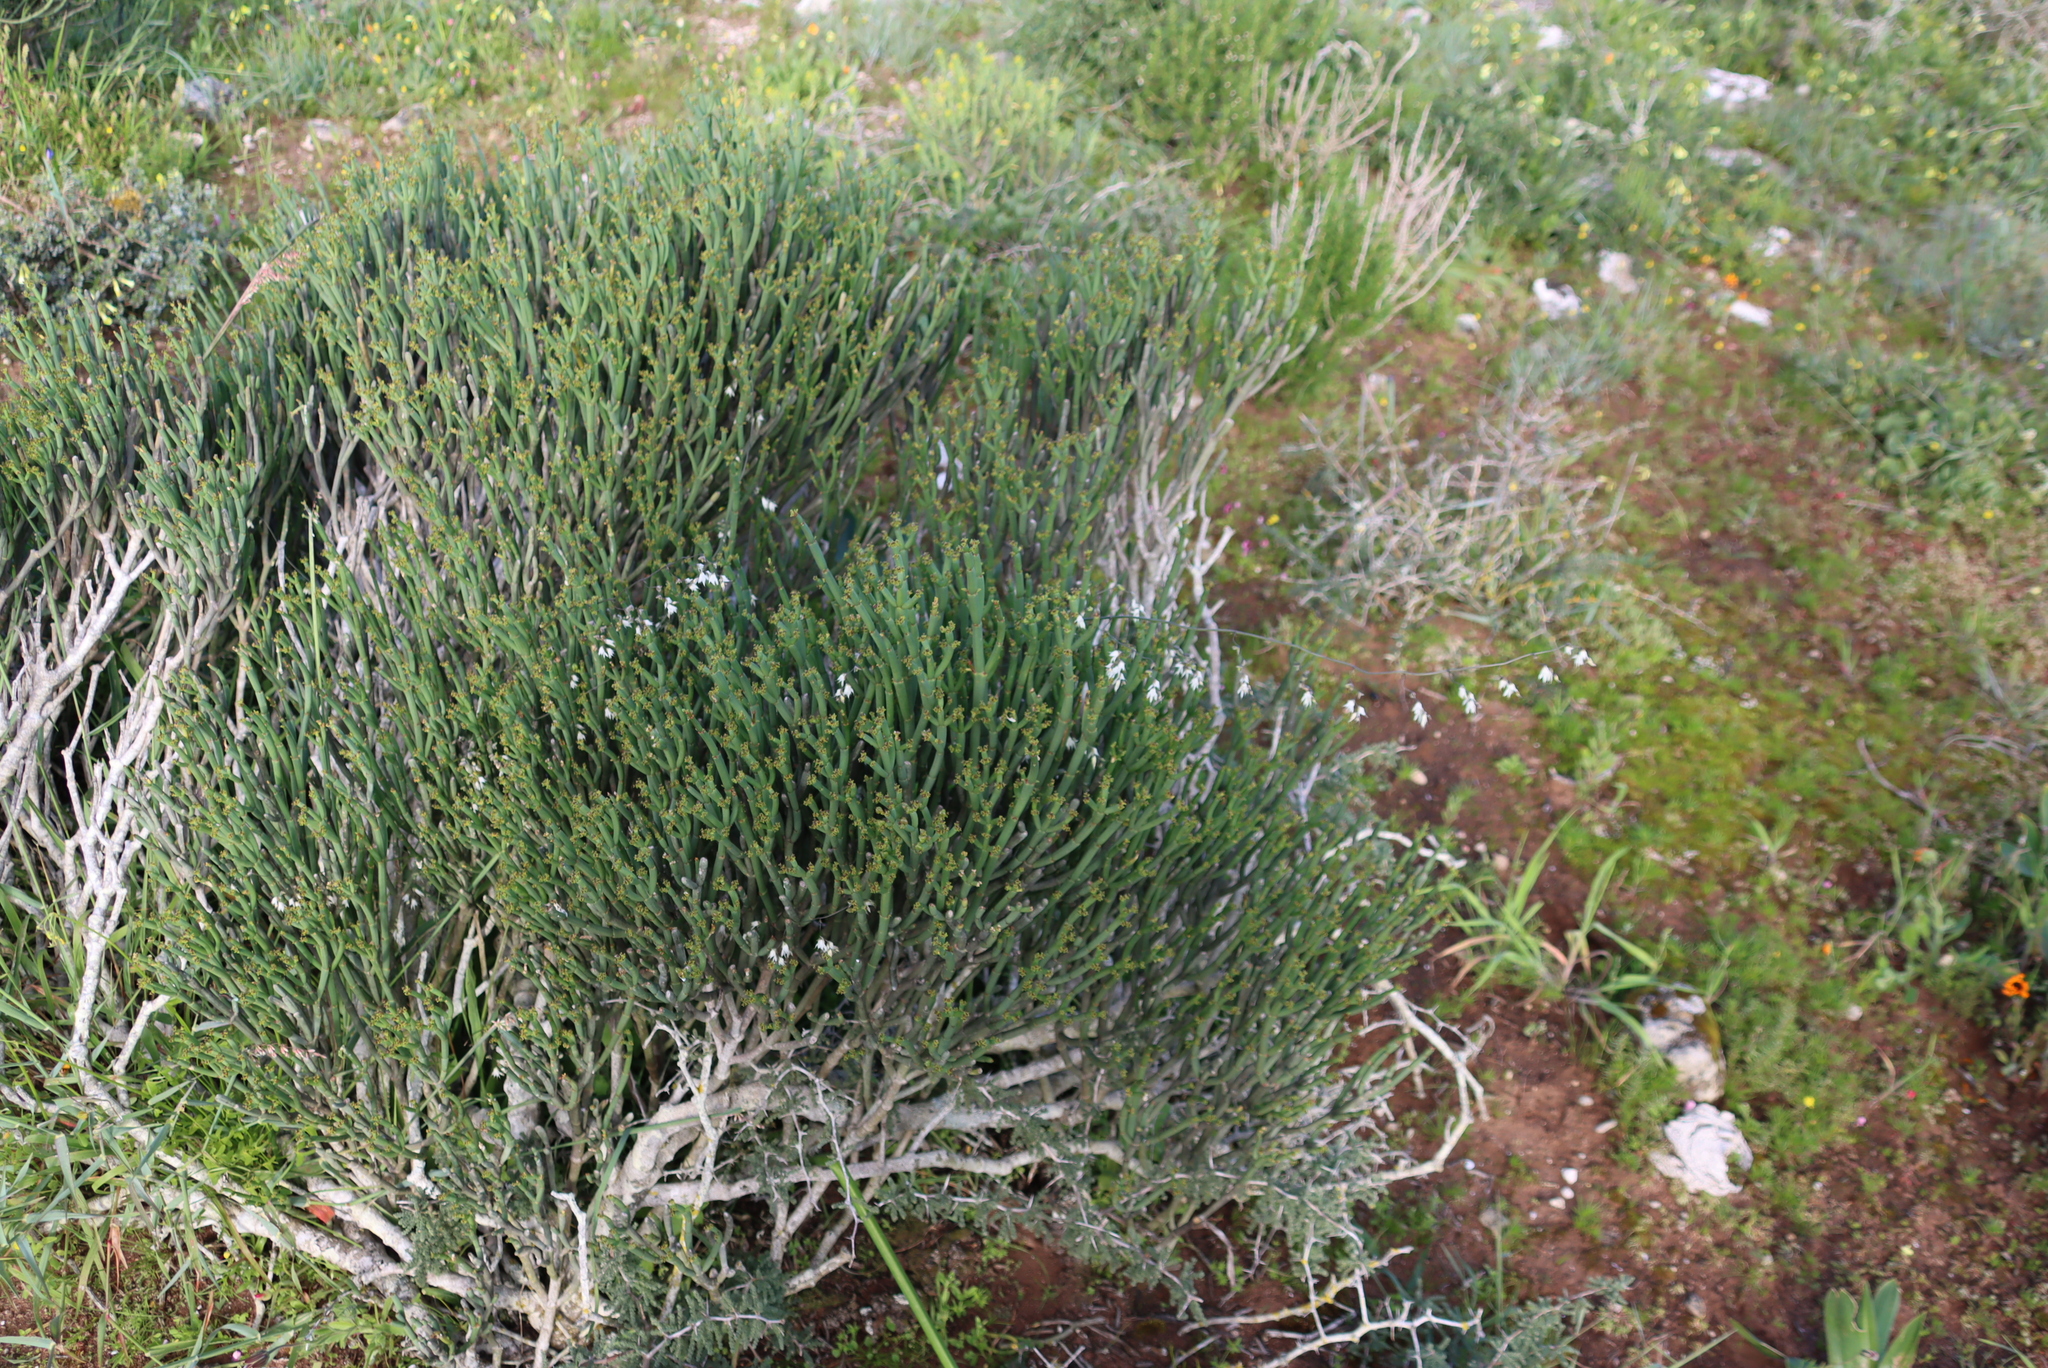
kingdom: Plantae
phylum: Tracheophyta
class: Liliopsida
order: Asparagales
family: Iridaceae
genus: Melasphaerula
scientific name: Melasphaerula graminea
